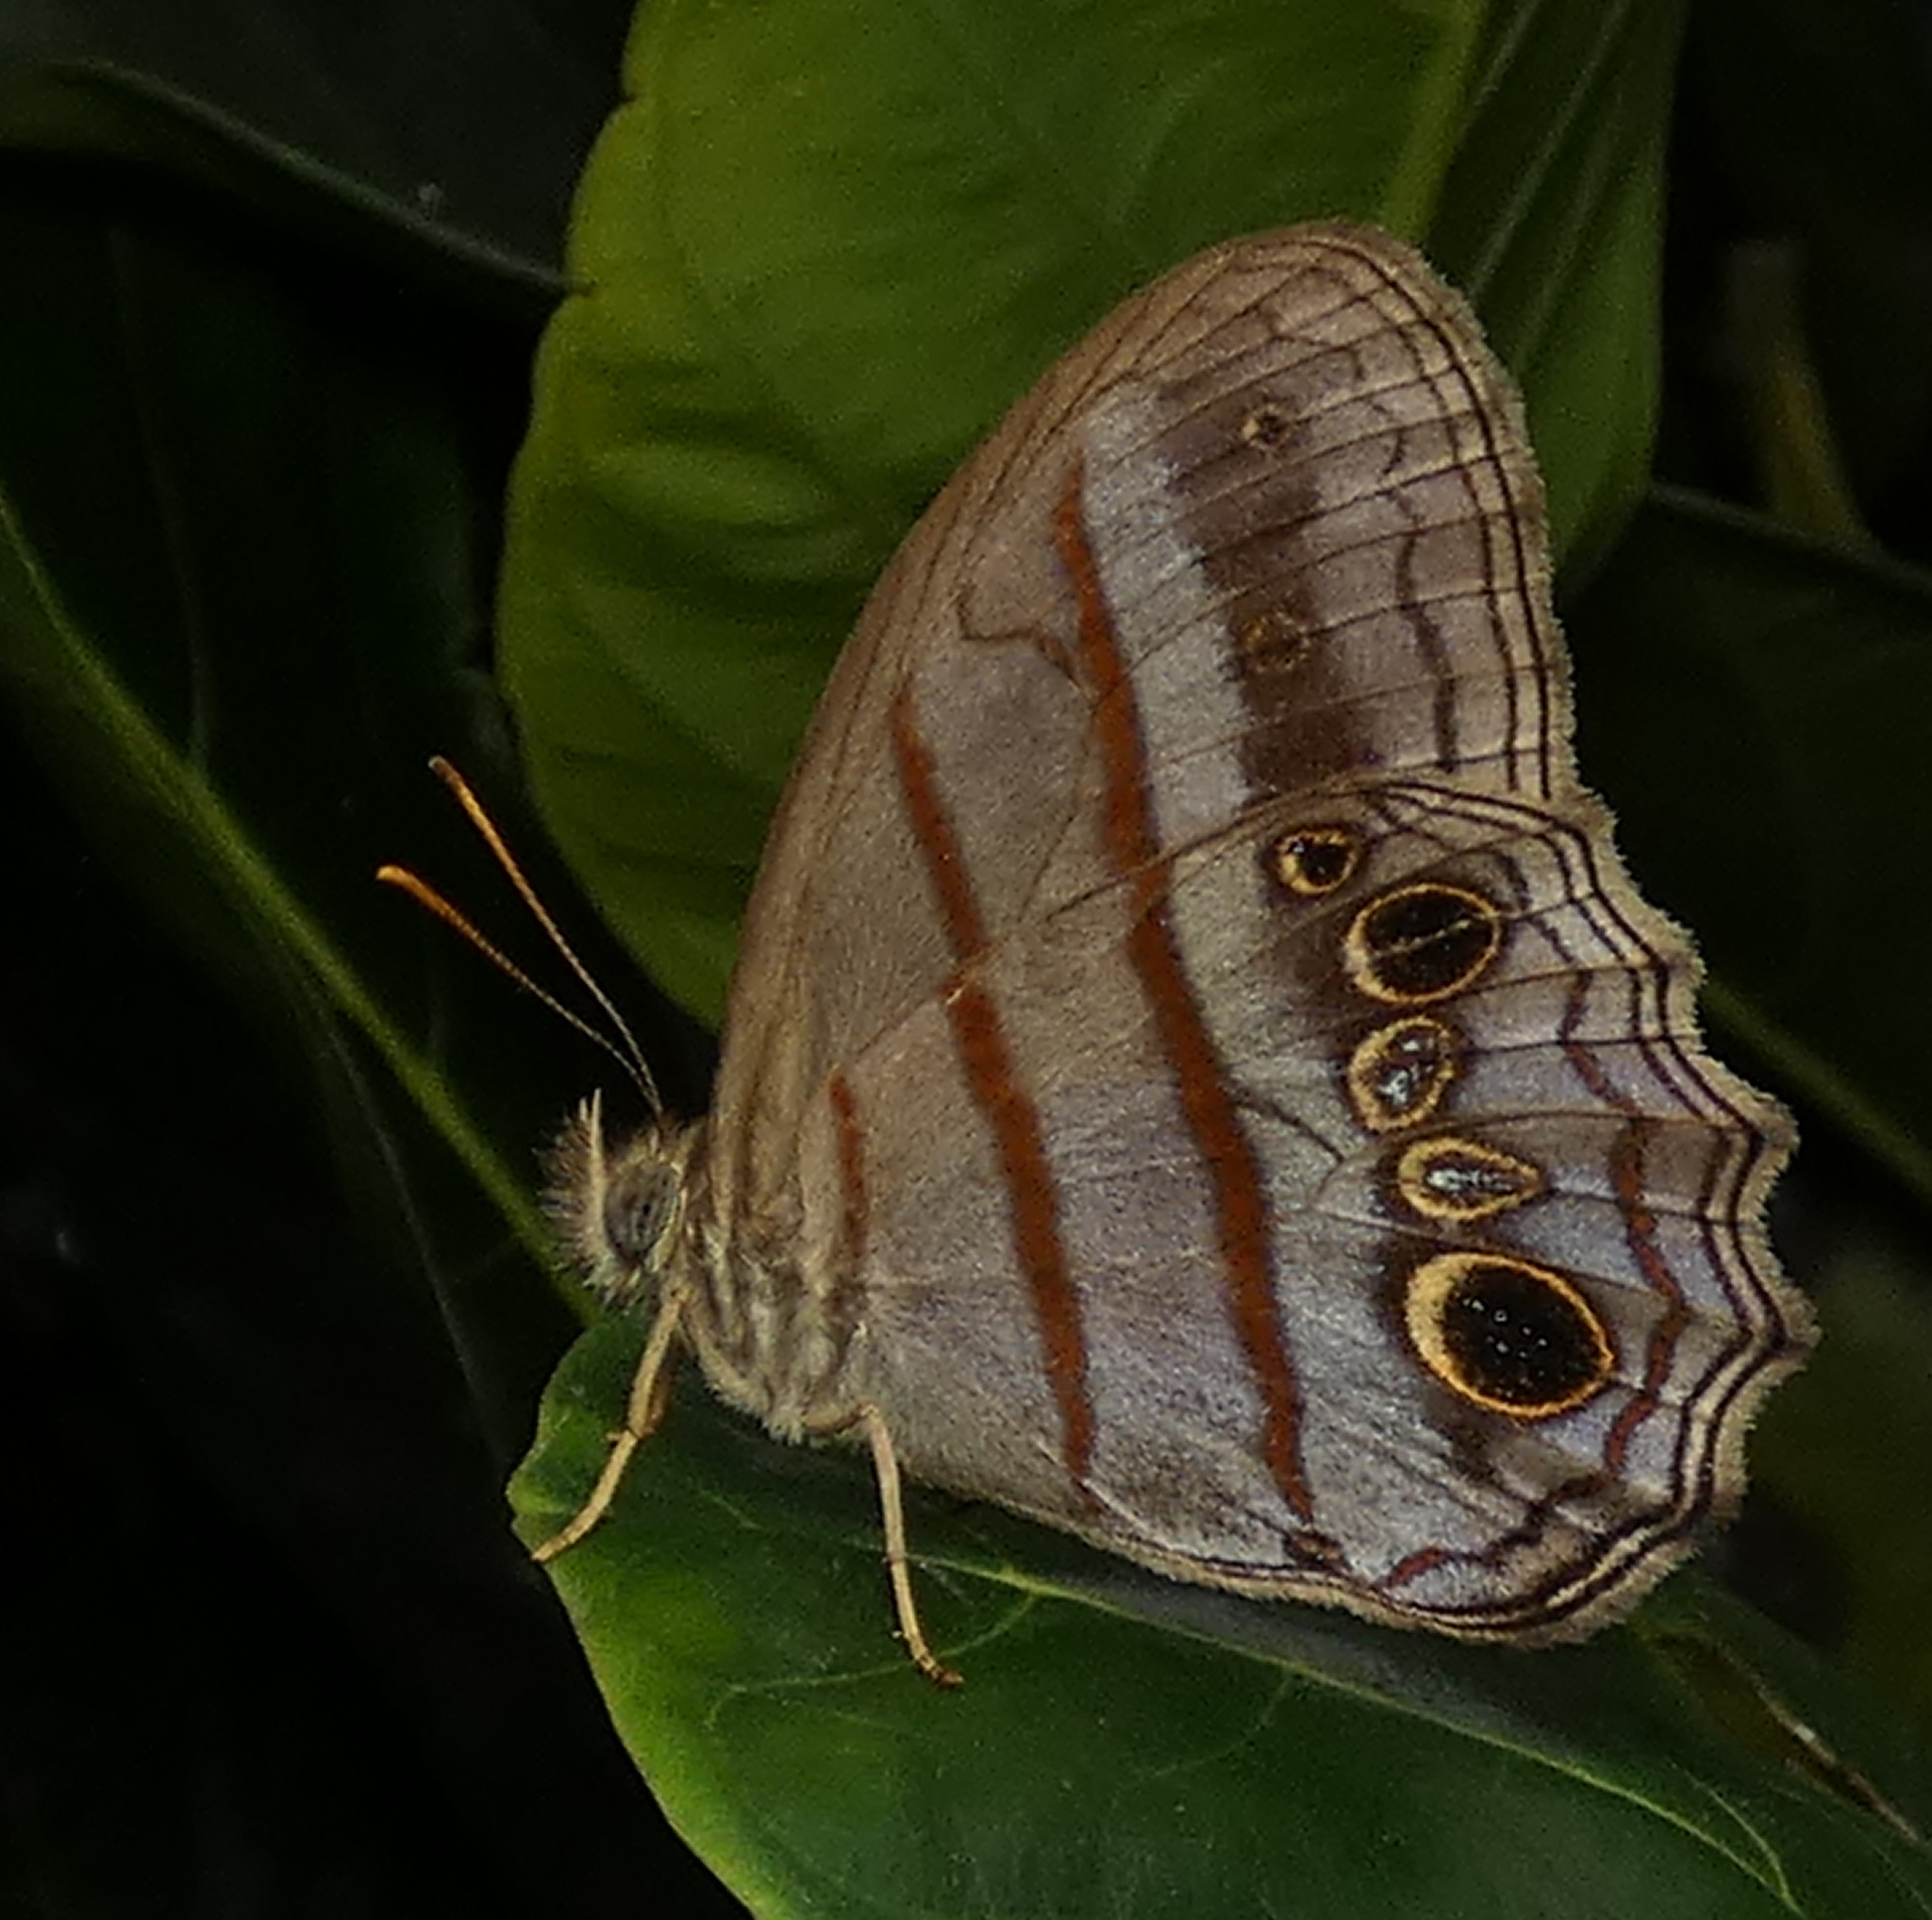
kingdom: Animalia
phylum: Arthropoda
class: Insecta
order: Lepidoptera
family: Nymphalidae
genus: Magneuptychia
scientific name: Magneuptychia libye
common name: Blue-gray satyr
